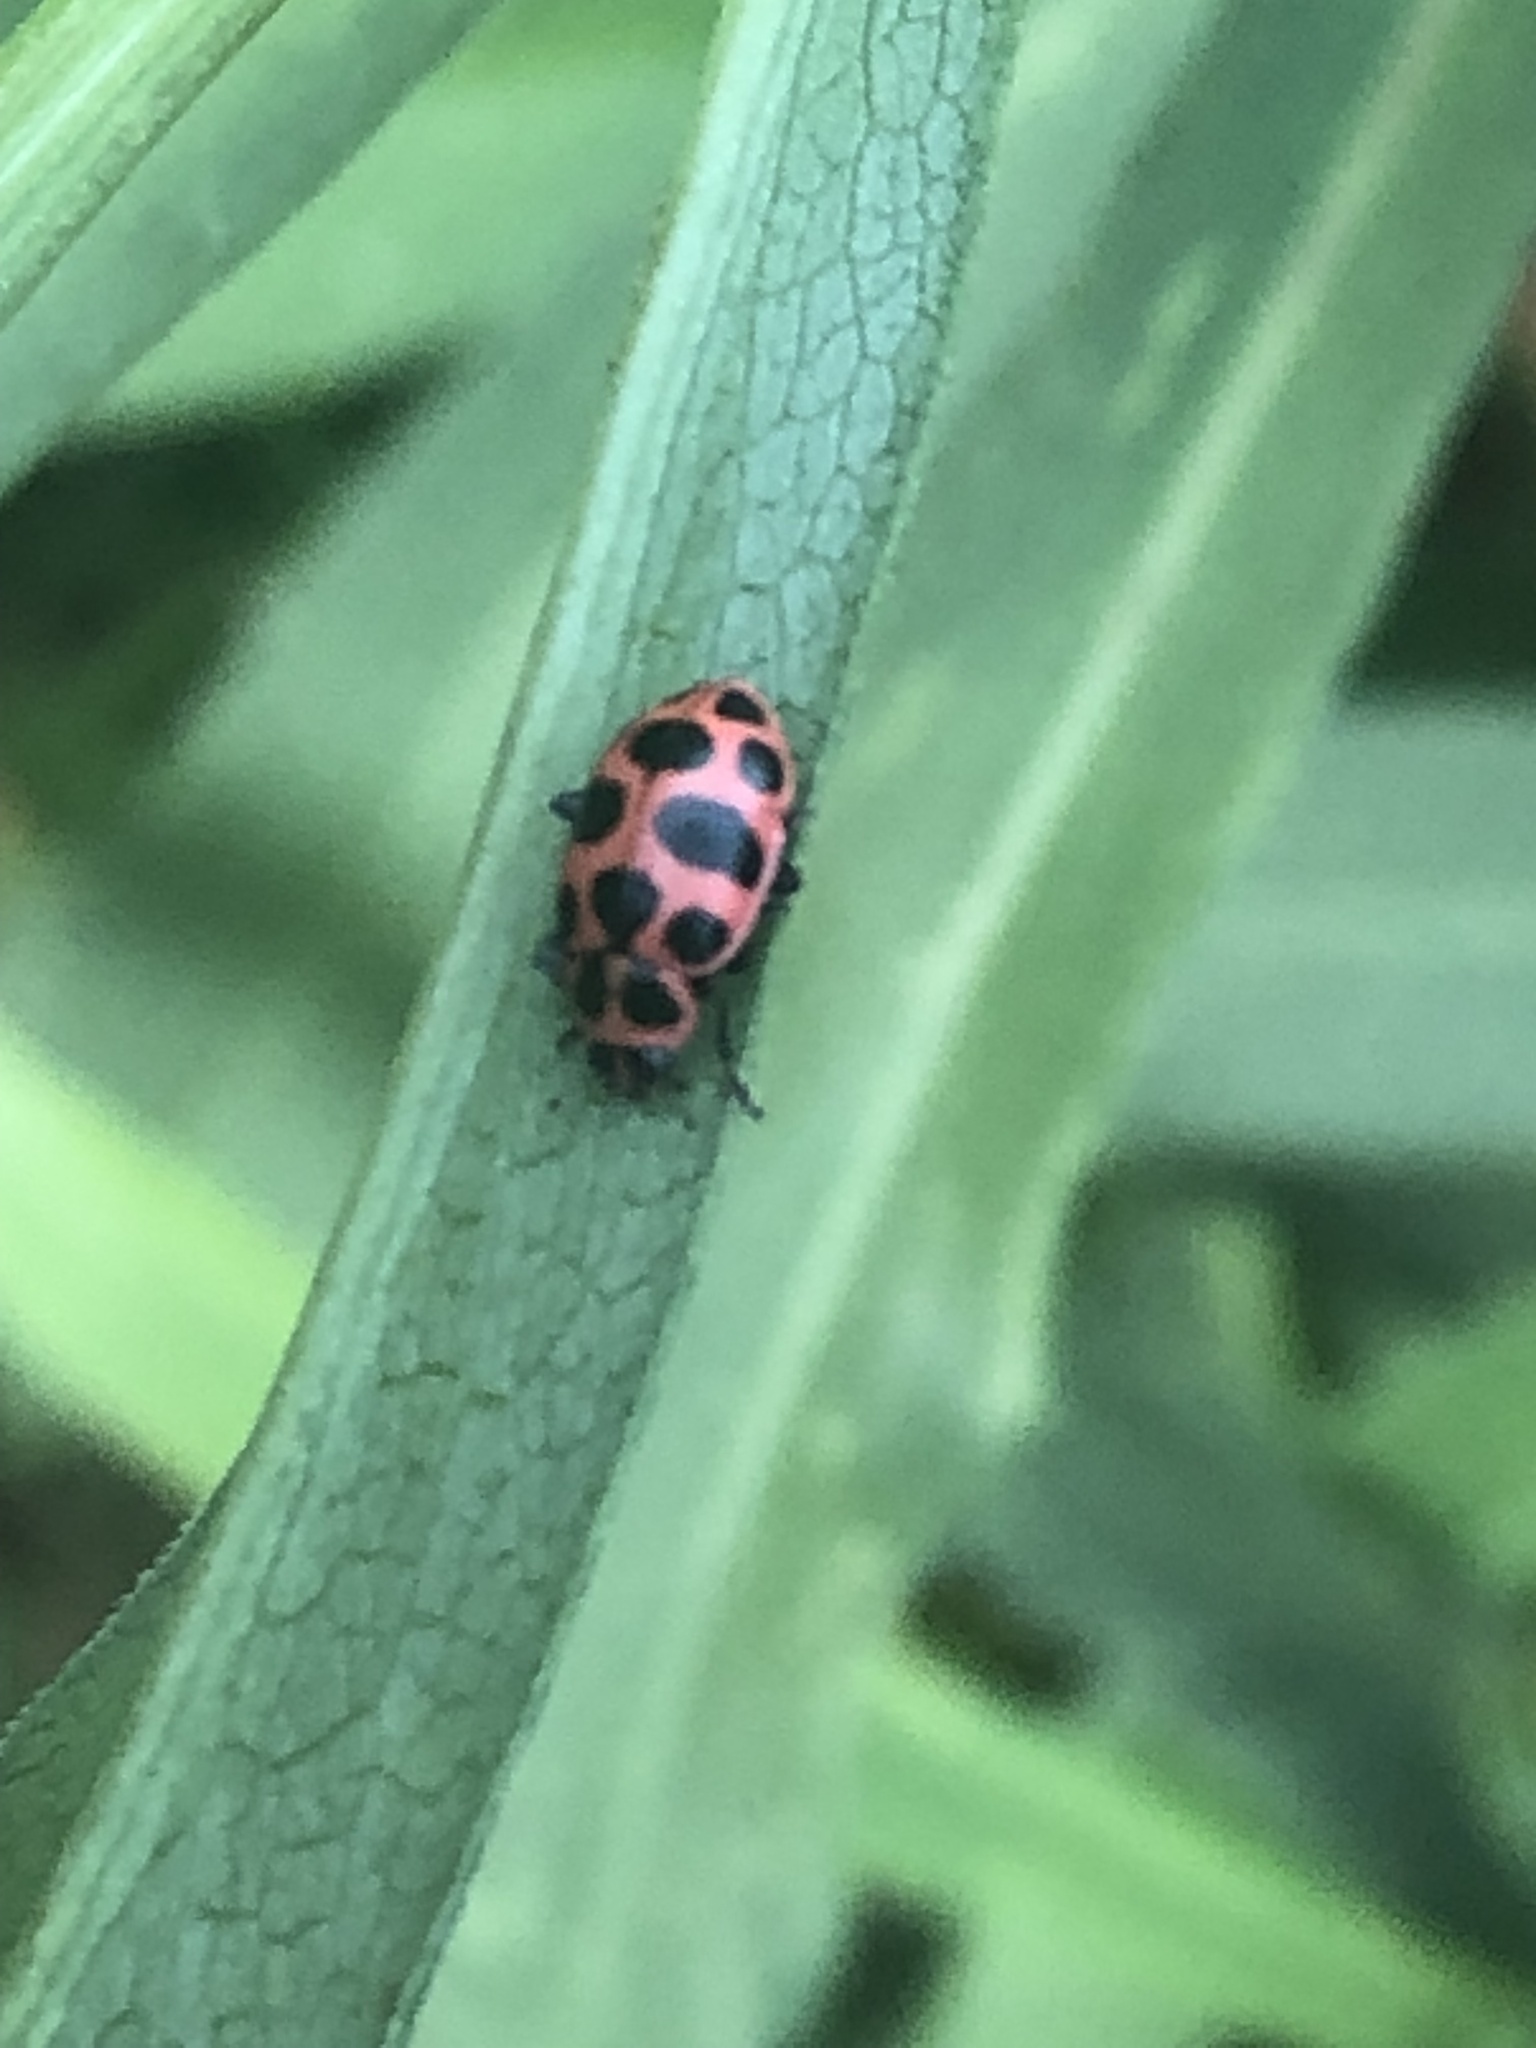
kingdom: Animalia
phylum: Arthropoda
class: Insecta
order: Coleoptera
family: Coccinellidae
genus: Coleomegilla
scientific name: Coleomegilla maculata
